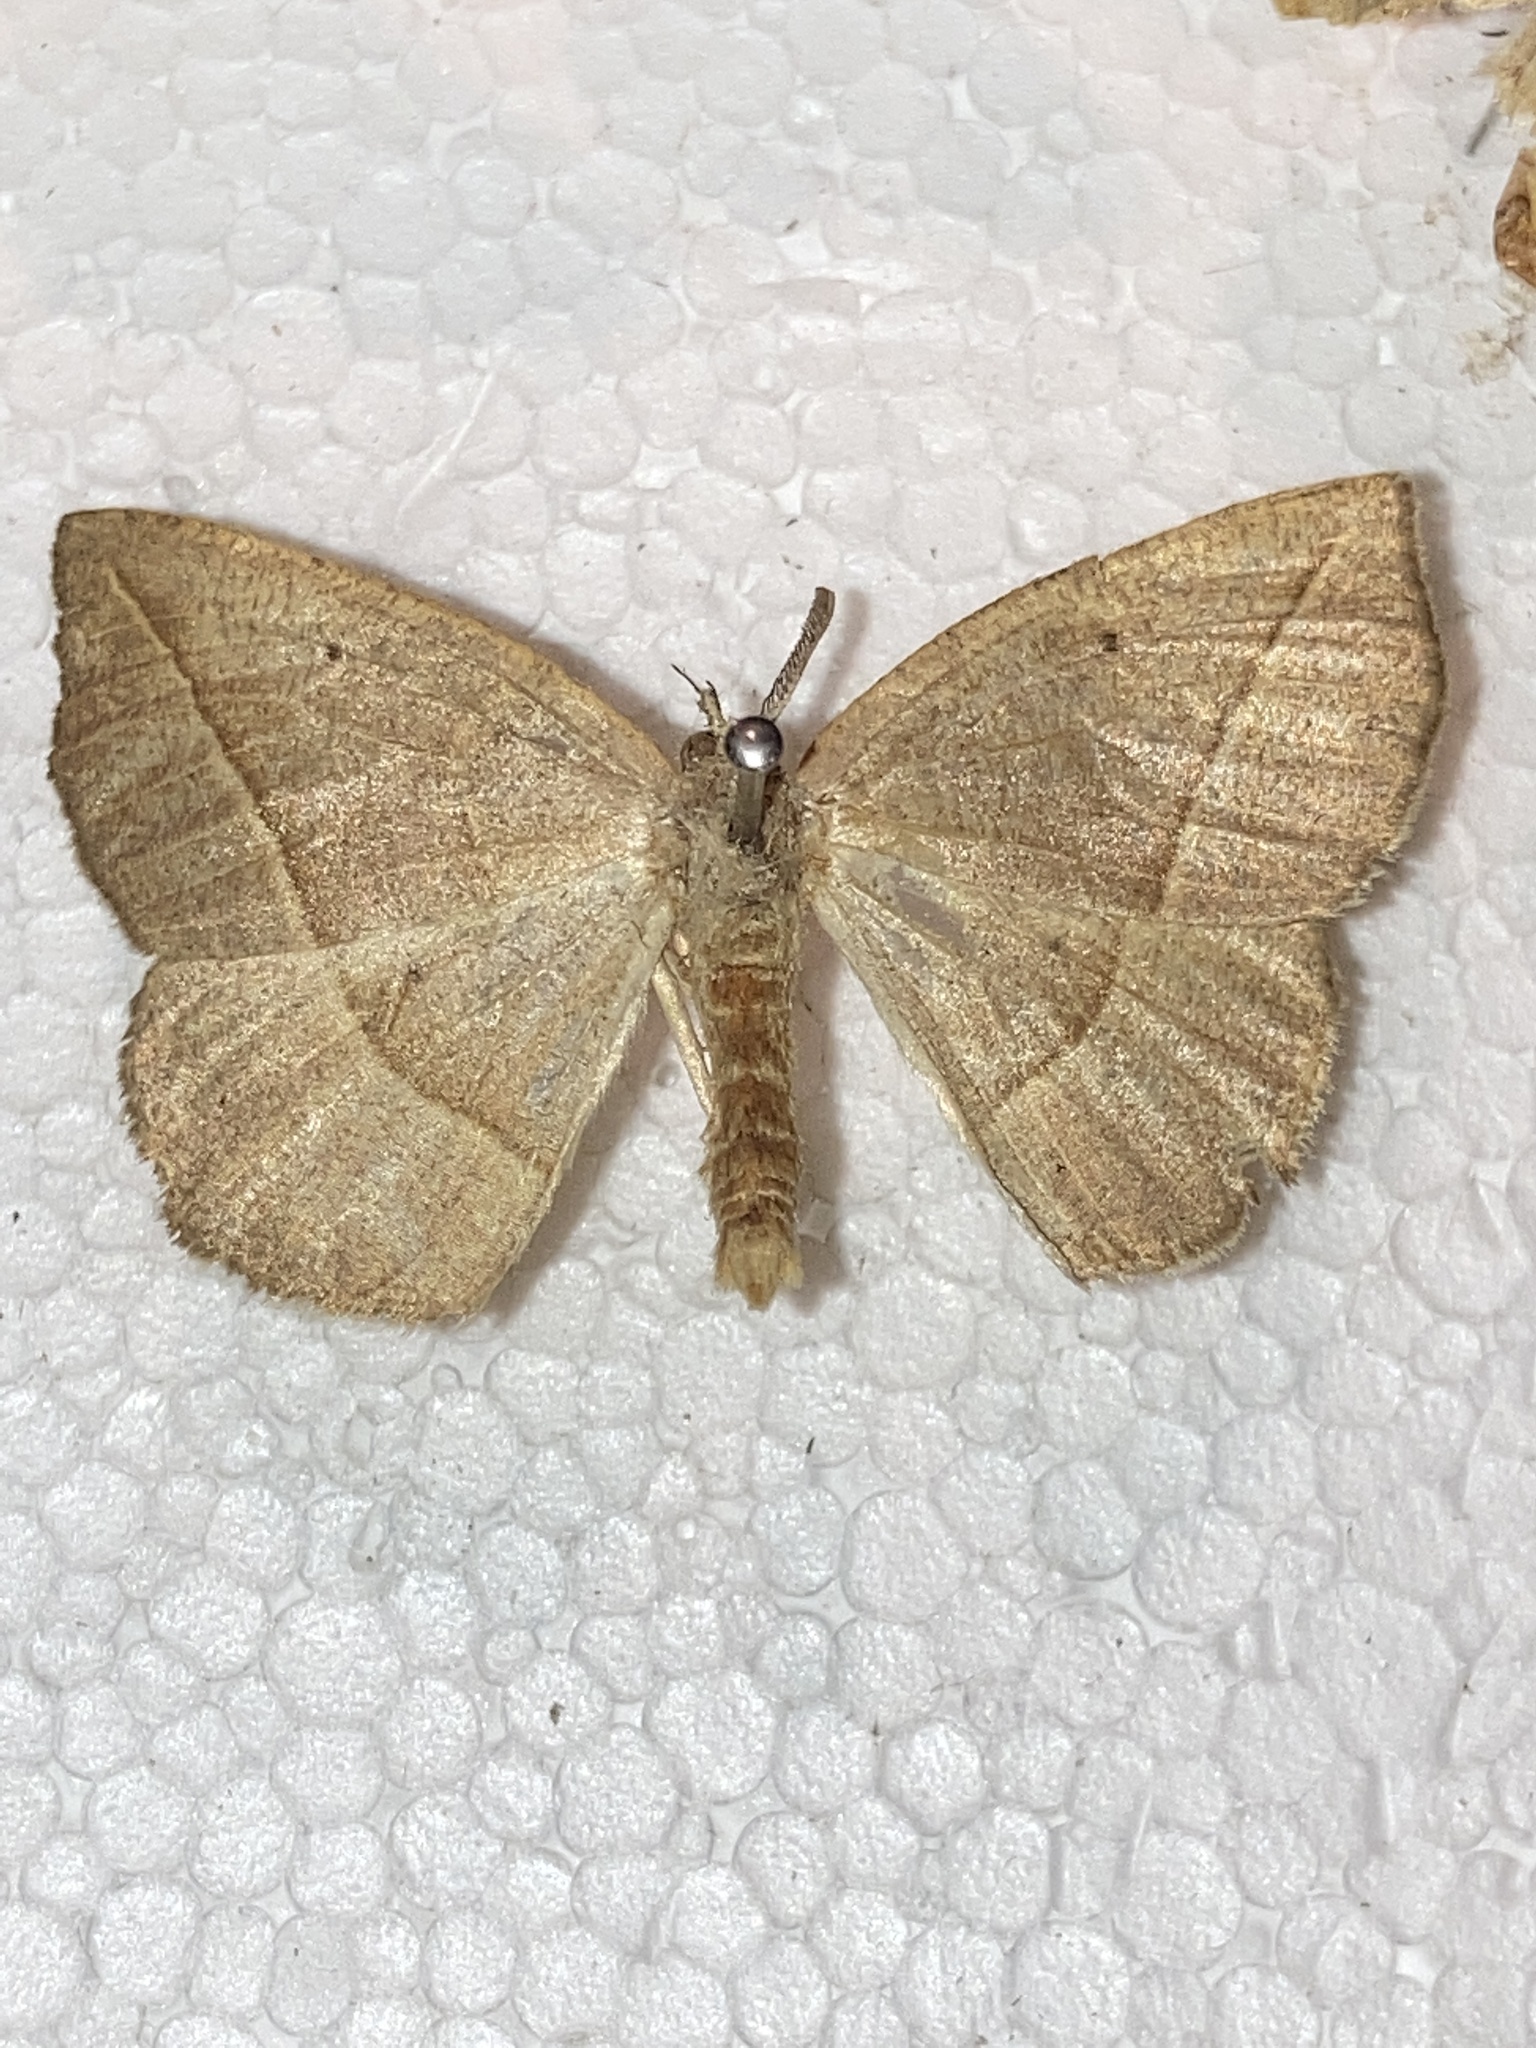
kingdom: Animalia
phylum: Arthropoda
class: Insecta
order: Lepidoptera
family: Geometridae
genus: Eusarca
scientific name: Eusarca confusaria
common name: Confused eusarca
